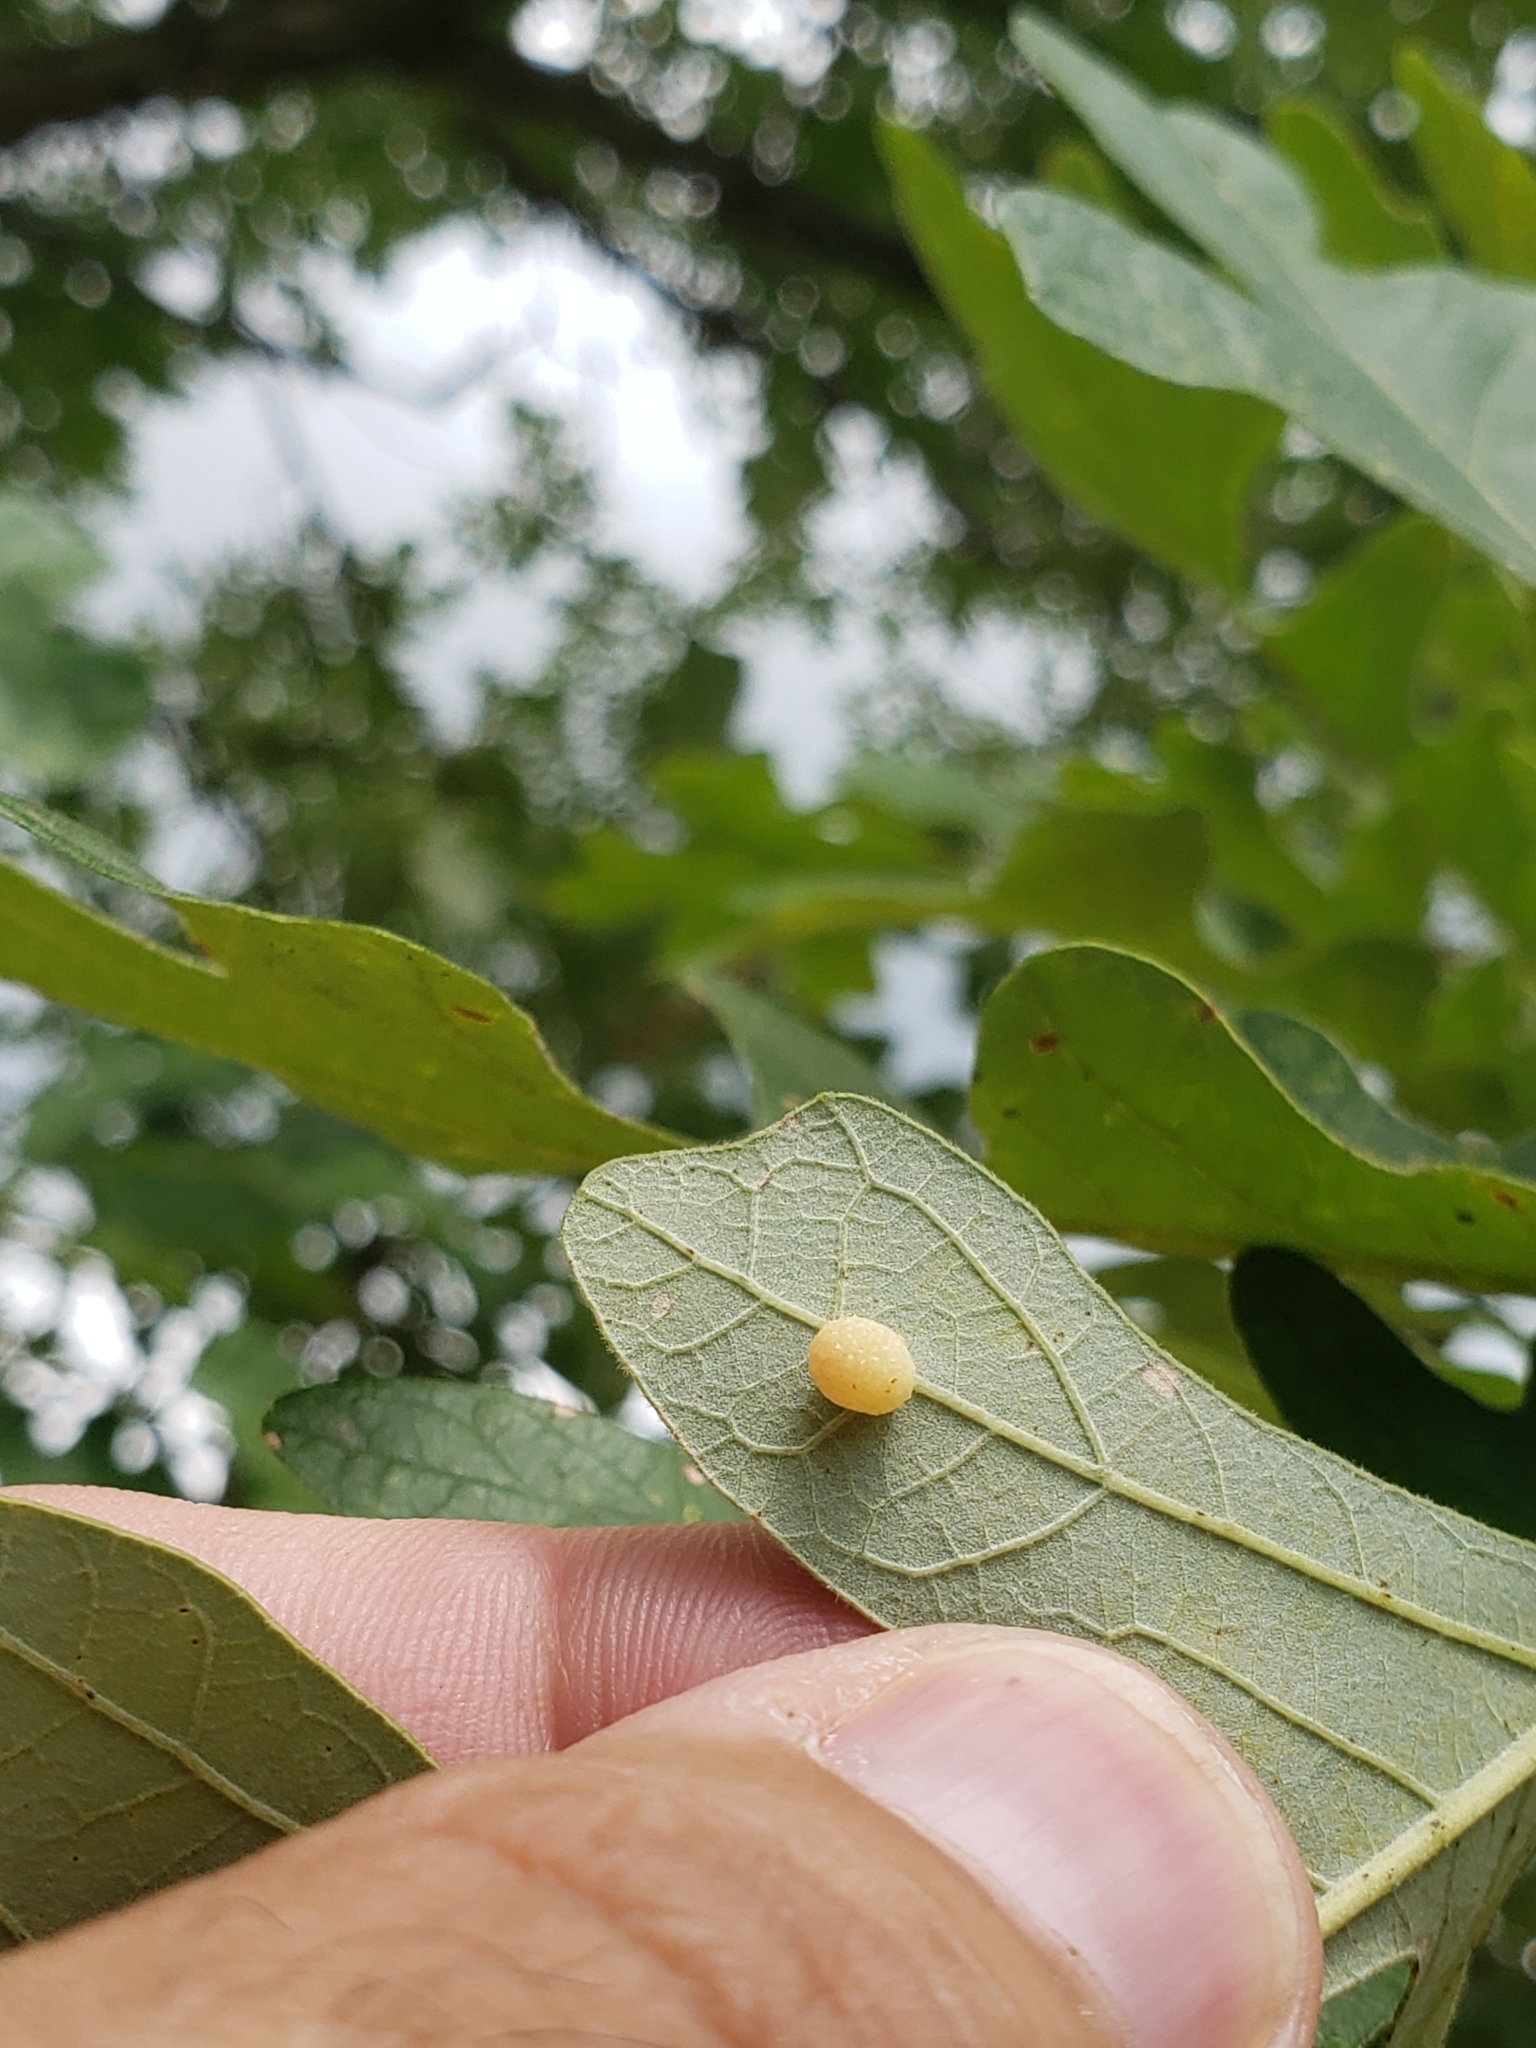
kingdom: Animalia
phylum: Arthropoda
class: Insecta
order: Hymenoptera
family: Cynipidae
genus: Acraspis
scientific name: Acraspis quercushirta
